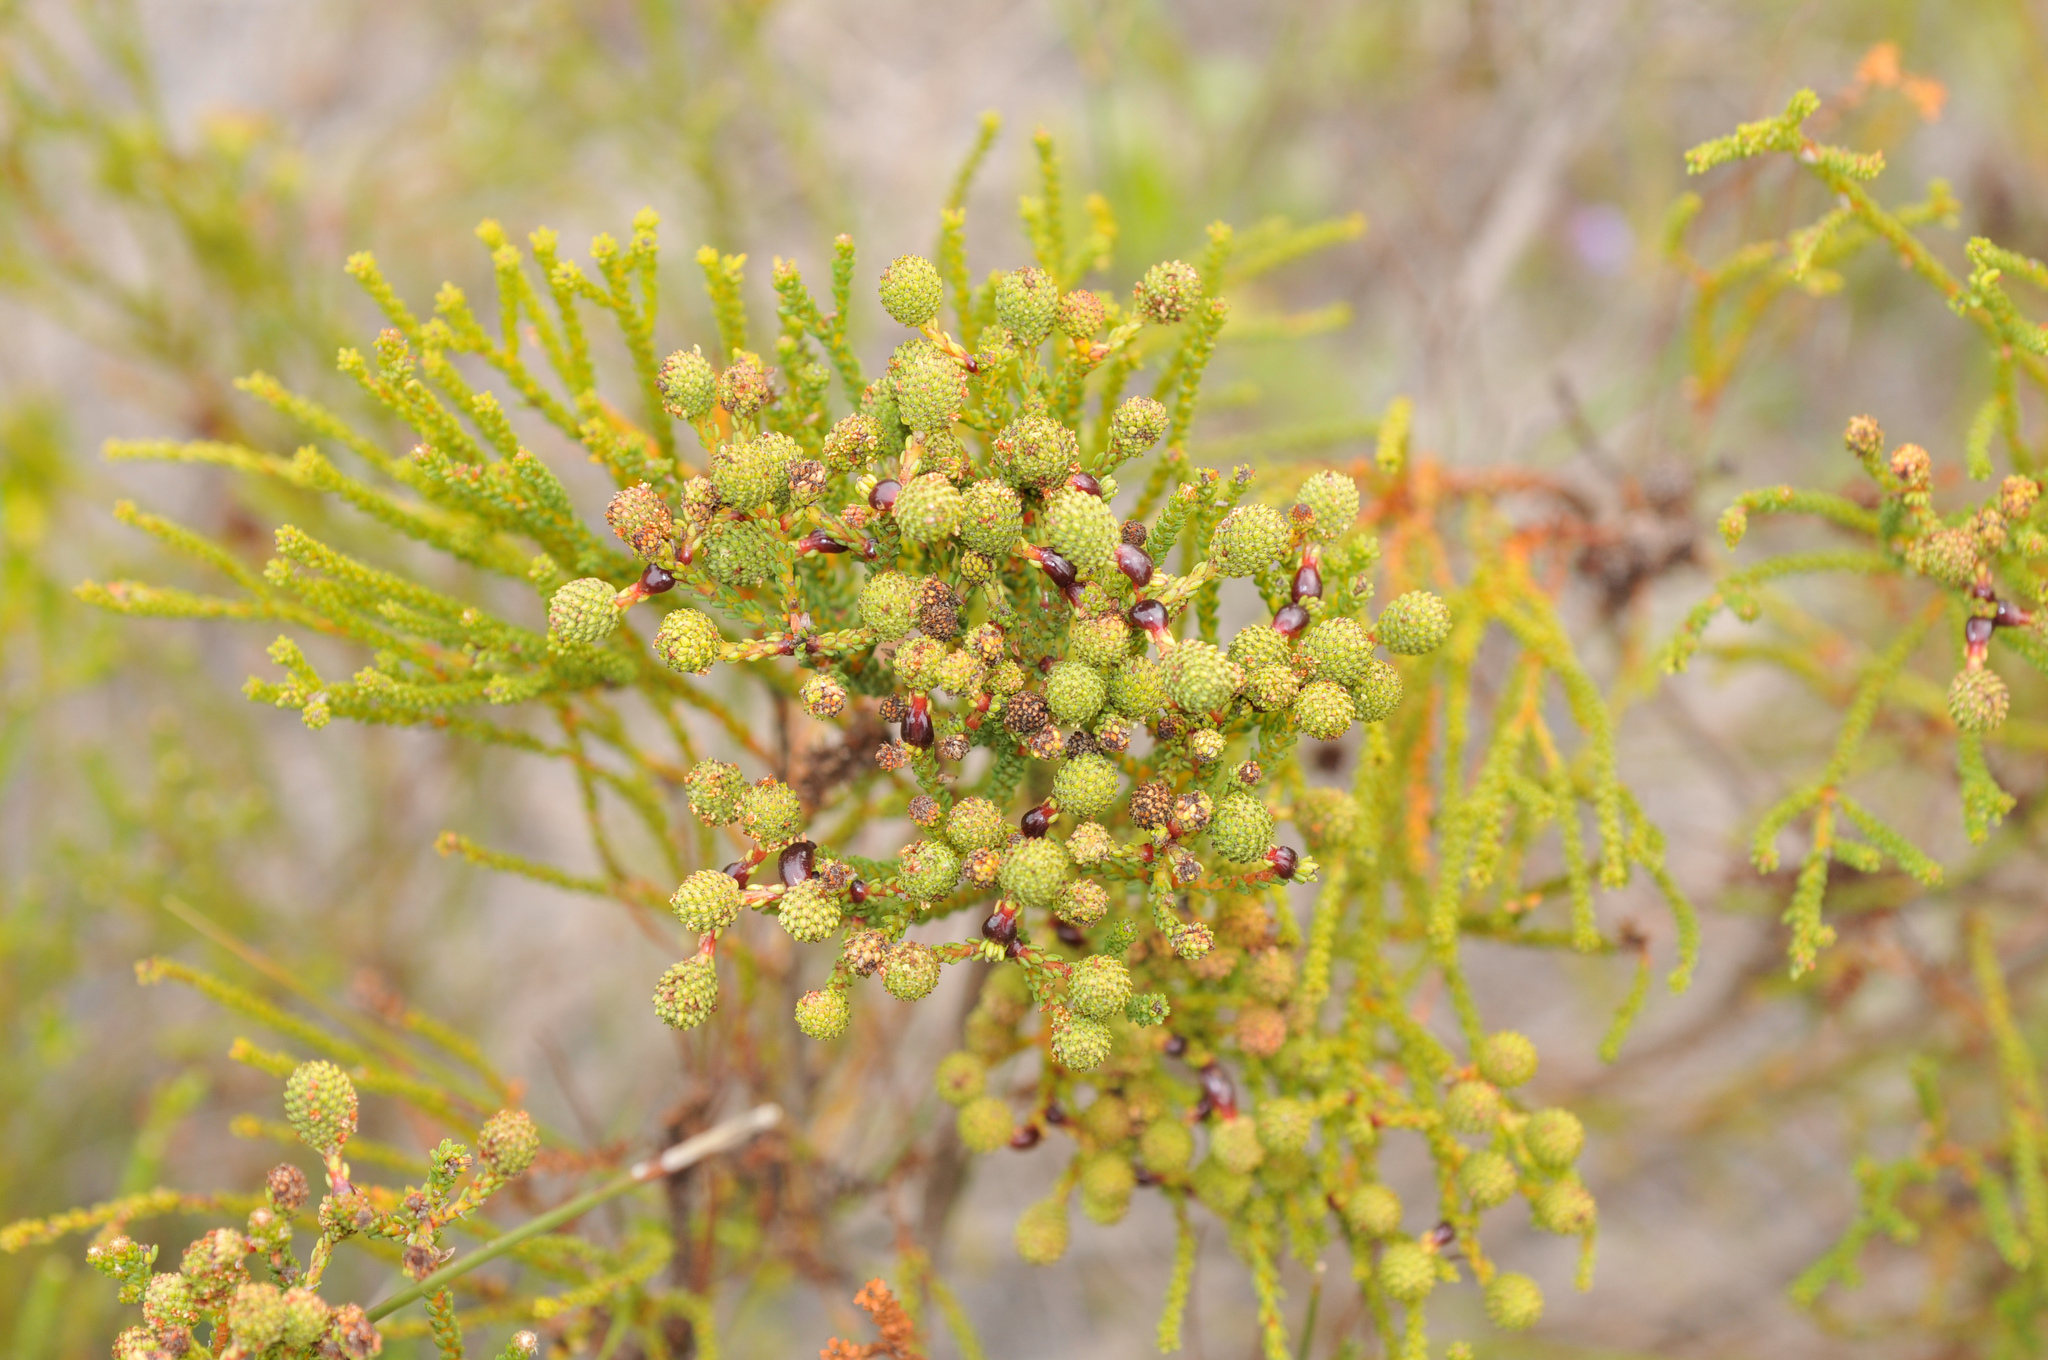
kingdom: Plantae
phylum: Tracheophyta
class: Magnoliopsida
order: Bruniales
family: Bruniaceae
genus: Berzelia
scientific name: Berzelia abrotanoides
